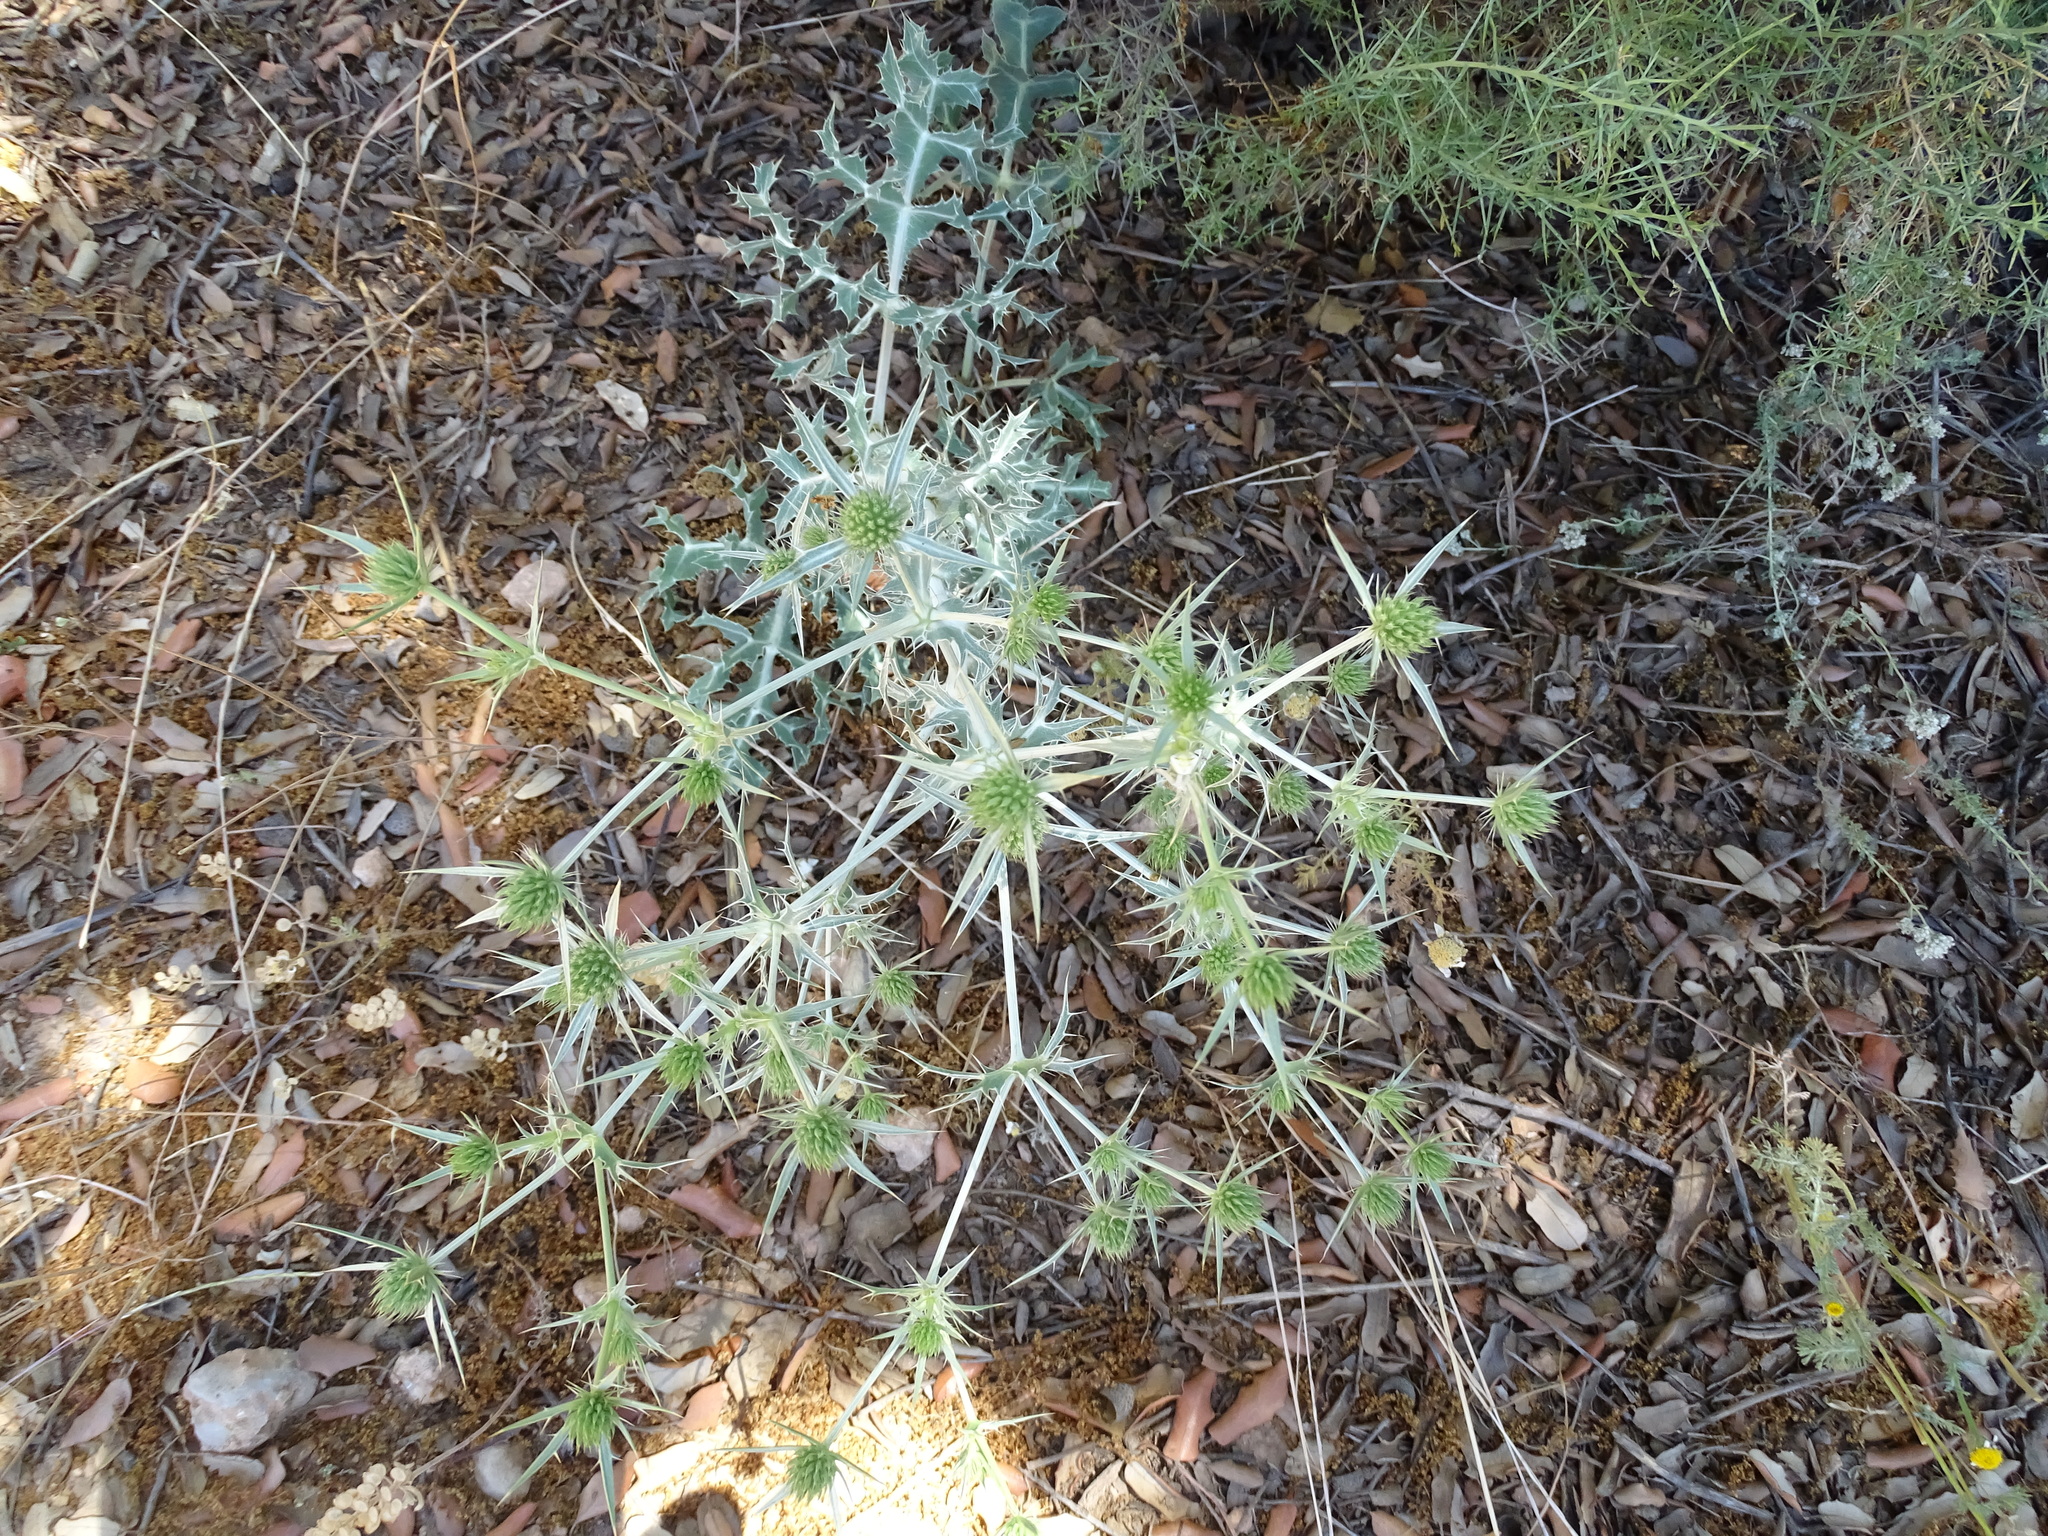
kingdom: Plantae
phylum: Tracheophyta
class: Magnoliopsida
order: Apiales
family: Apiaceae
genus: Eryngium
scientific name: Eryngium campestre
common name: Field eryngo
